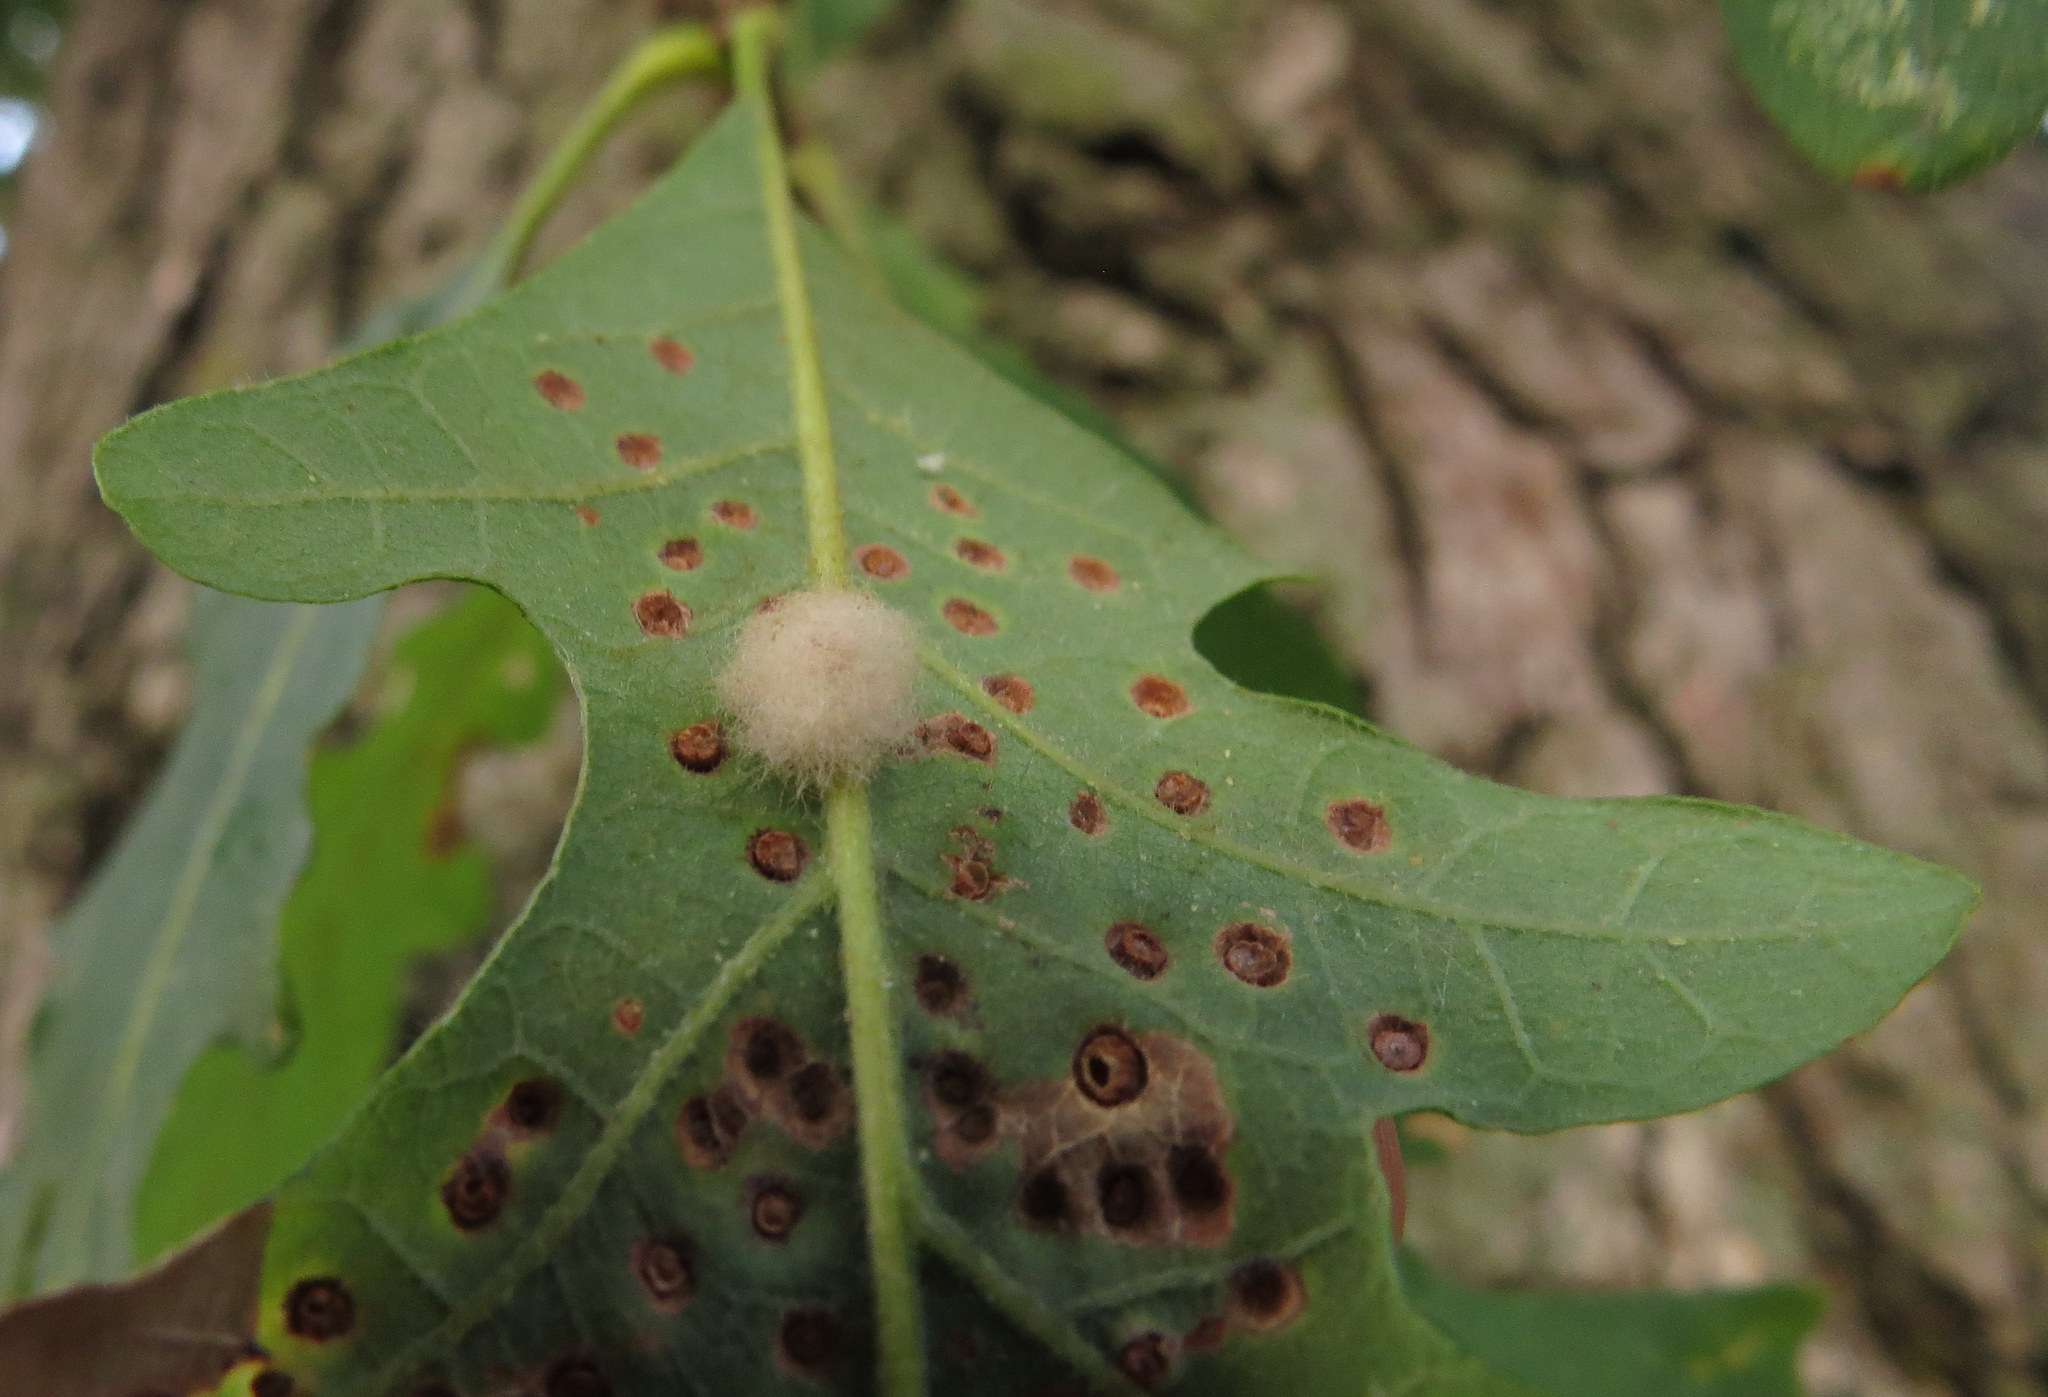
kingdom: Animalia
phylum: Arthropoda
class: Insecta
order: Hymenoptera
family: Cynipidae
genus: Andricus
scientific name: Andricus Druon ignotum
